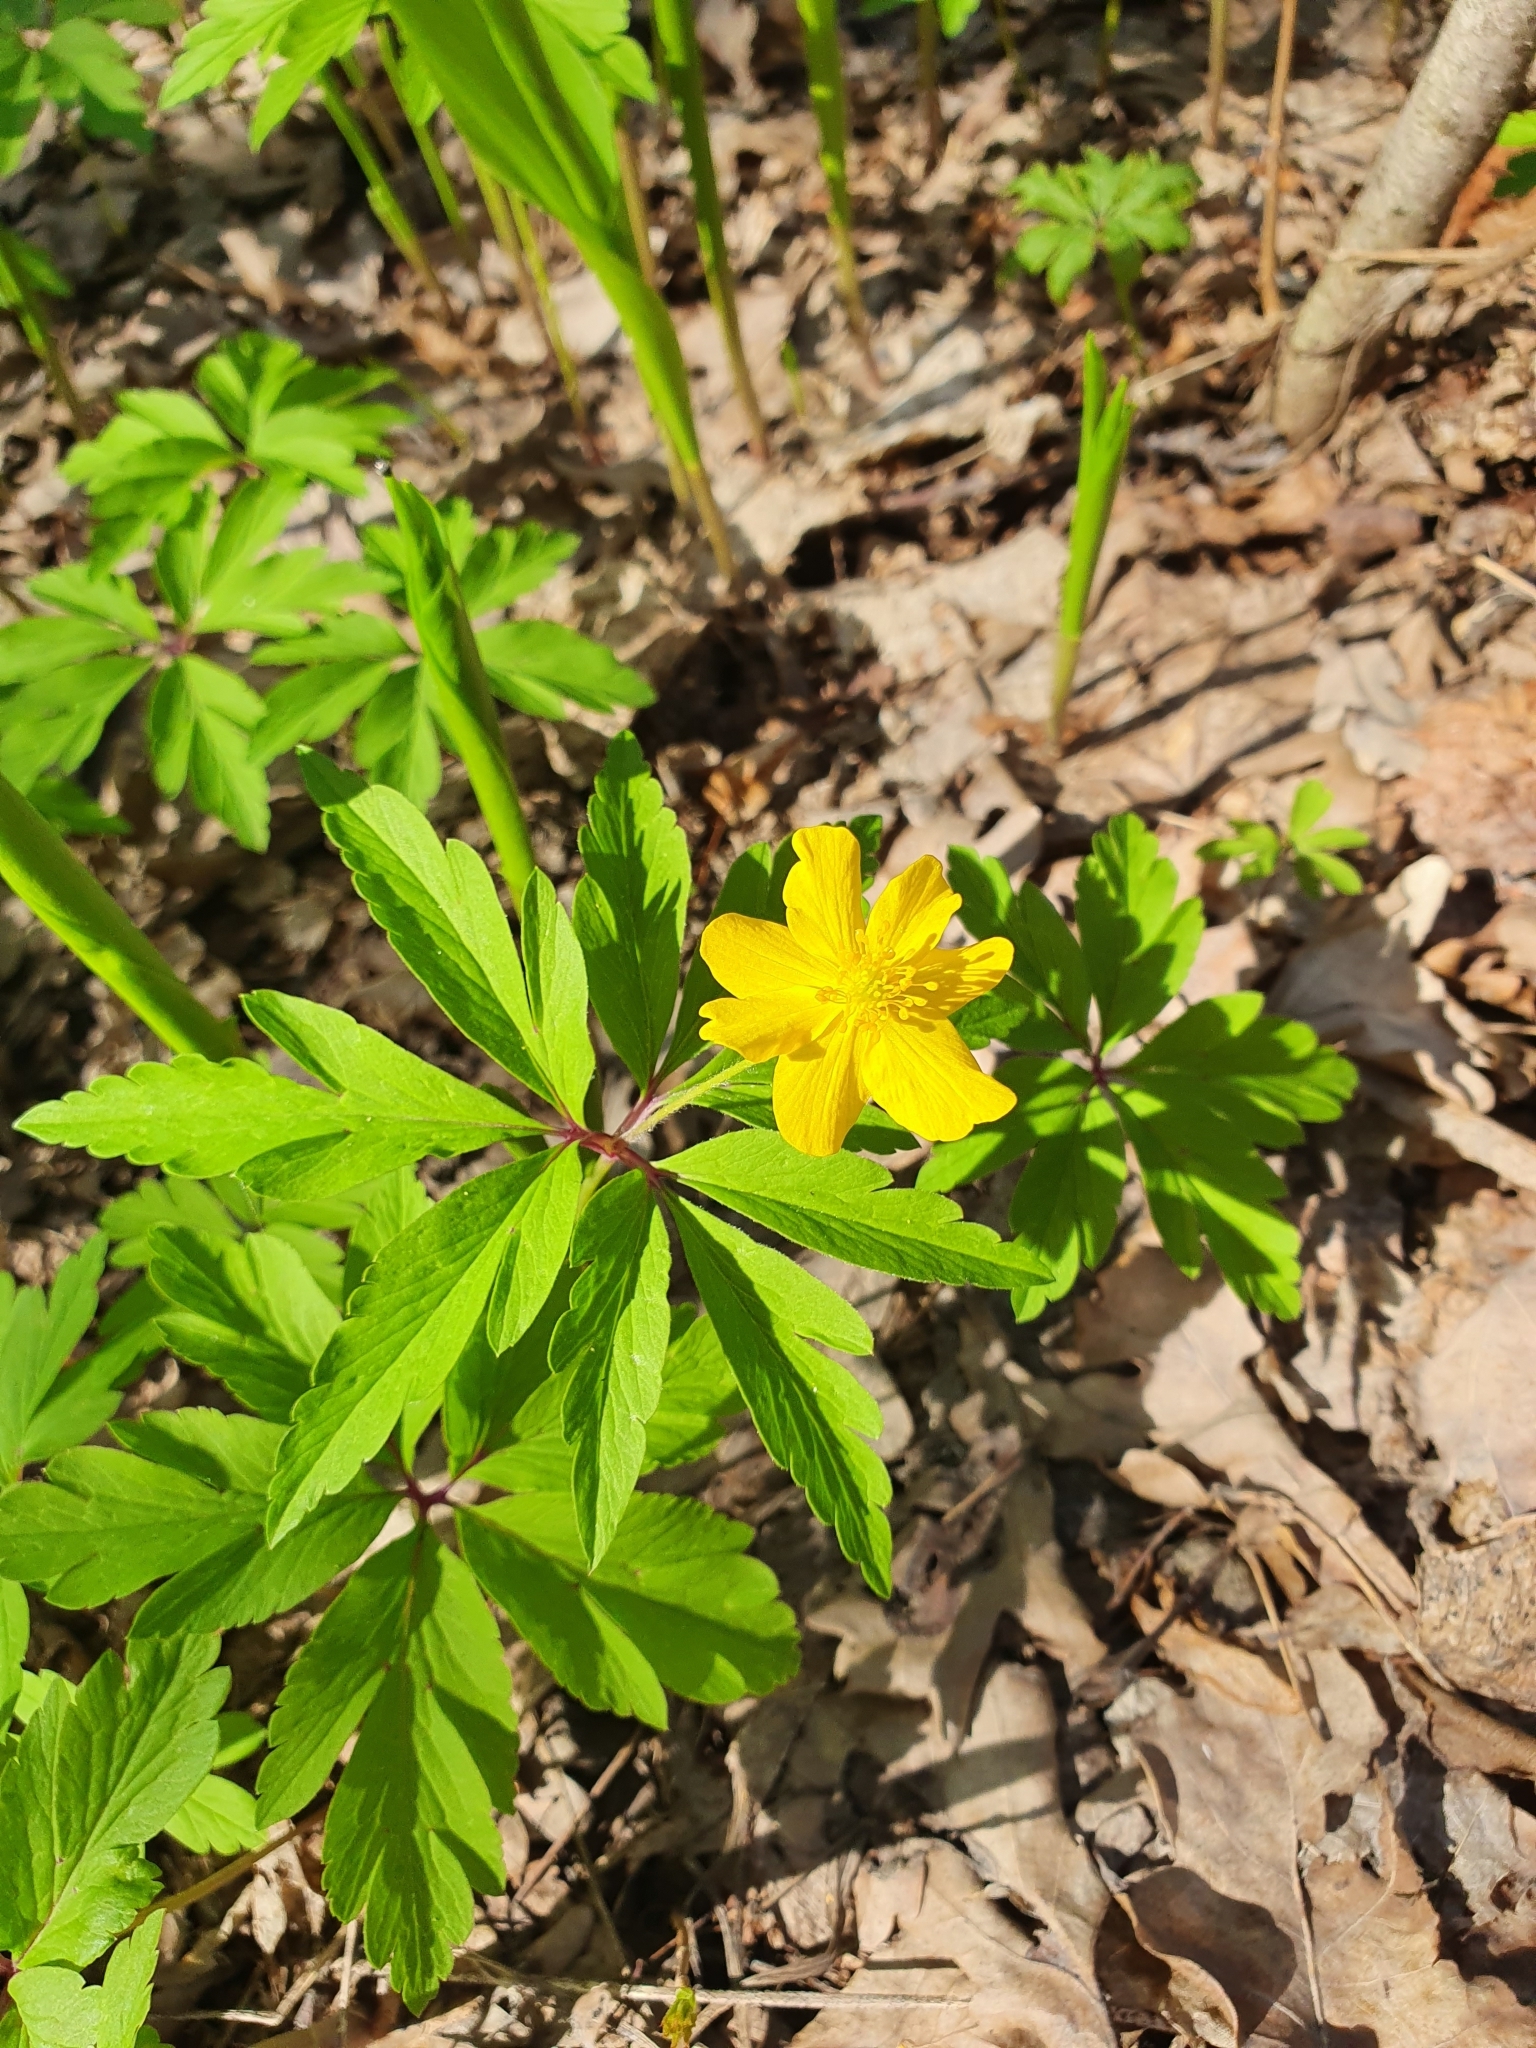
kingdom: Plantae
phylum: Tracheophyta
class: Magnoliopsida
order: Ranunculales
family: Ranunculaceae
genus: Anemone
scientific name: Anemone ranunculoides
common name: Yellow anemone
